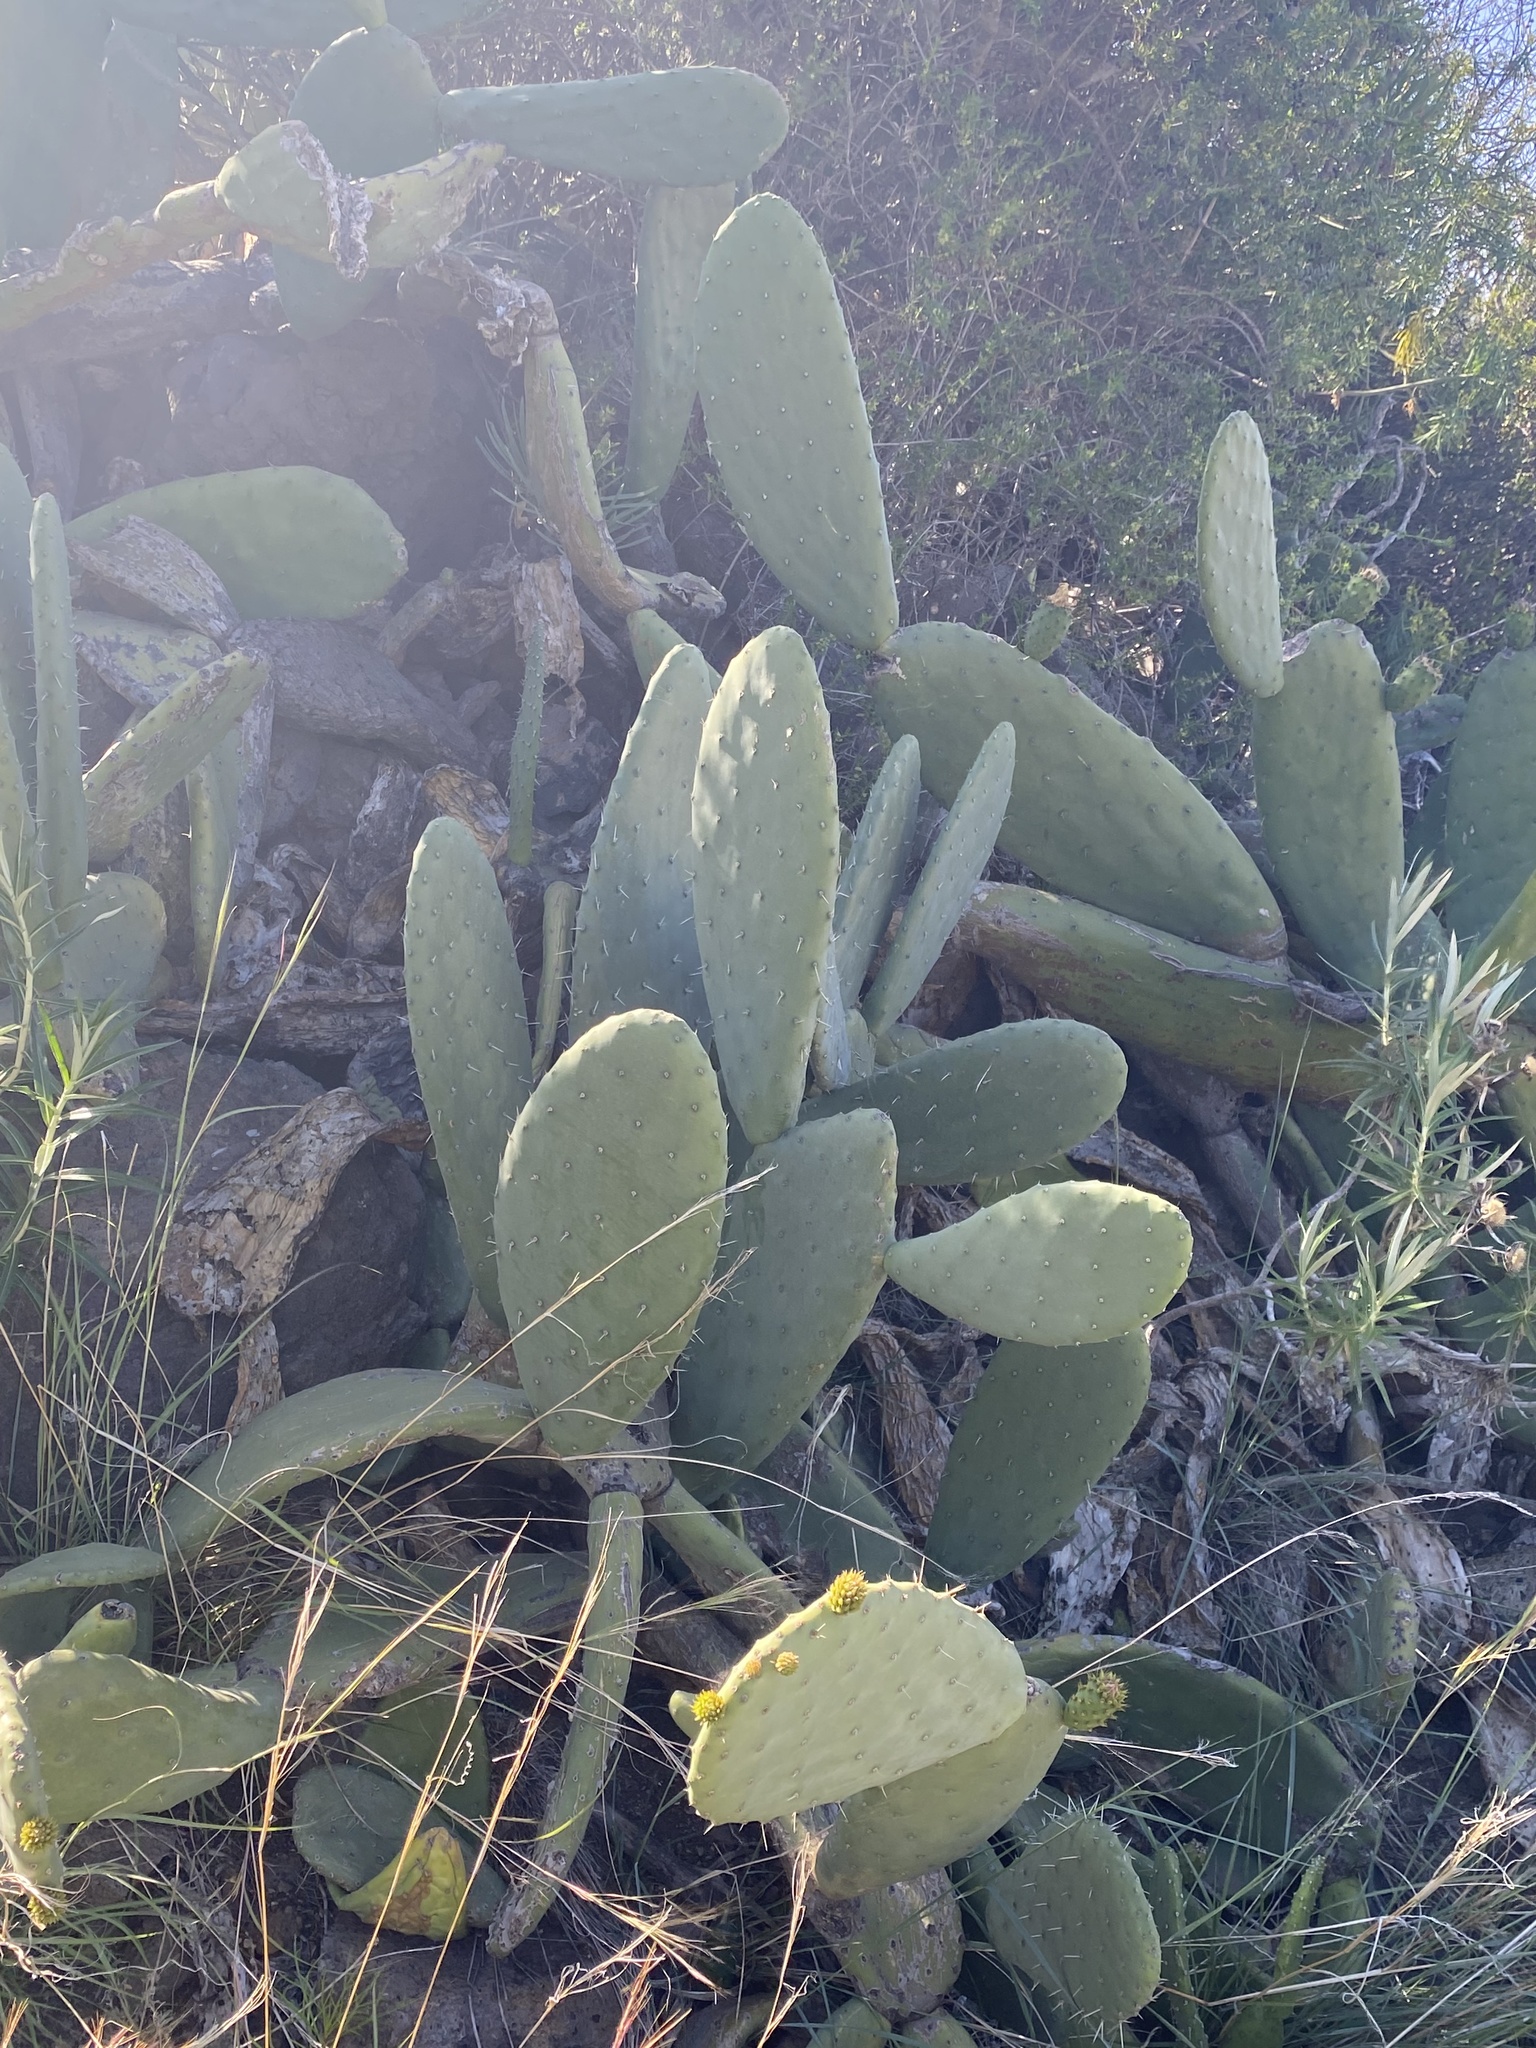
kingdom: Plantae
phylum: Tracheophyta
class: Magnoliopsida
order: Caryophyllales
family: Cactaceae
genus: Opuntia
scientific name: Opuntia ficus-indica
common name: Barbary fig
